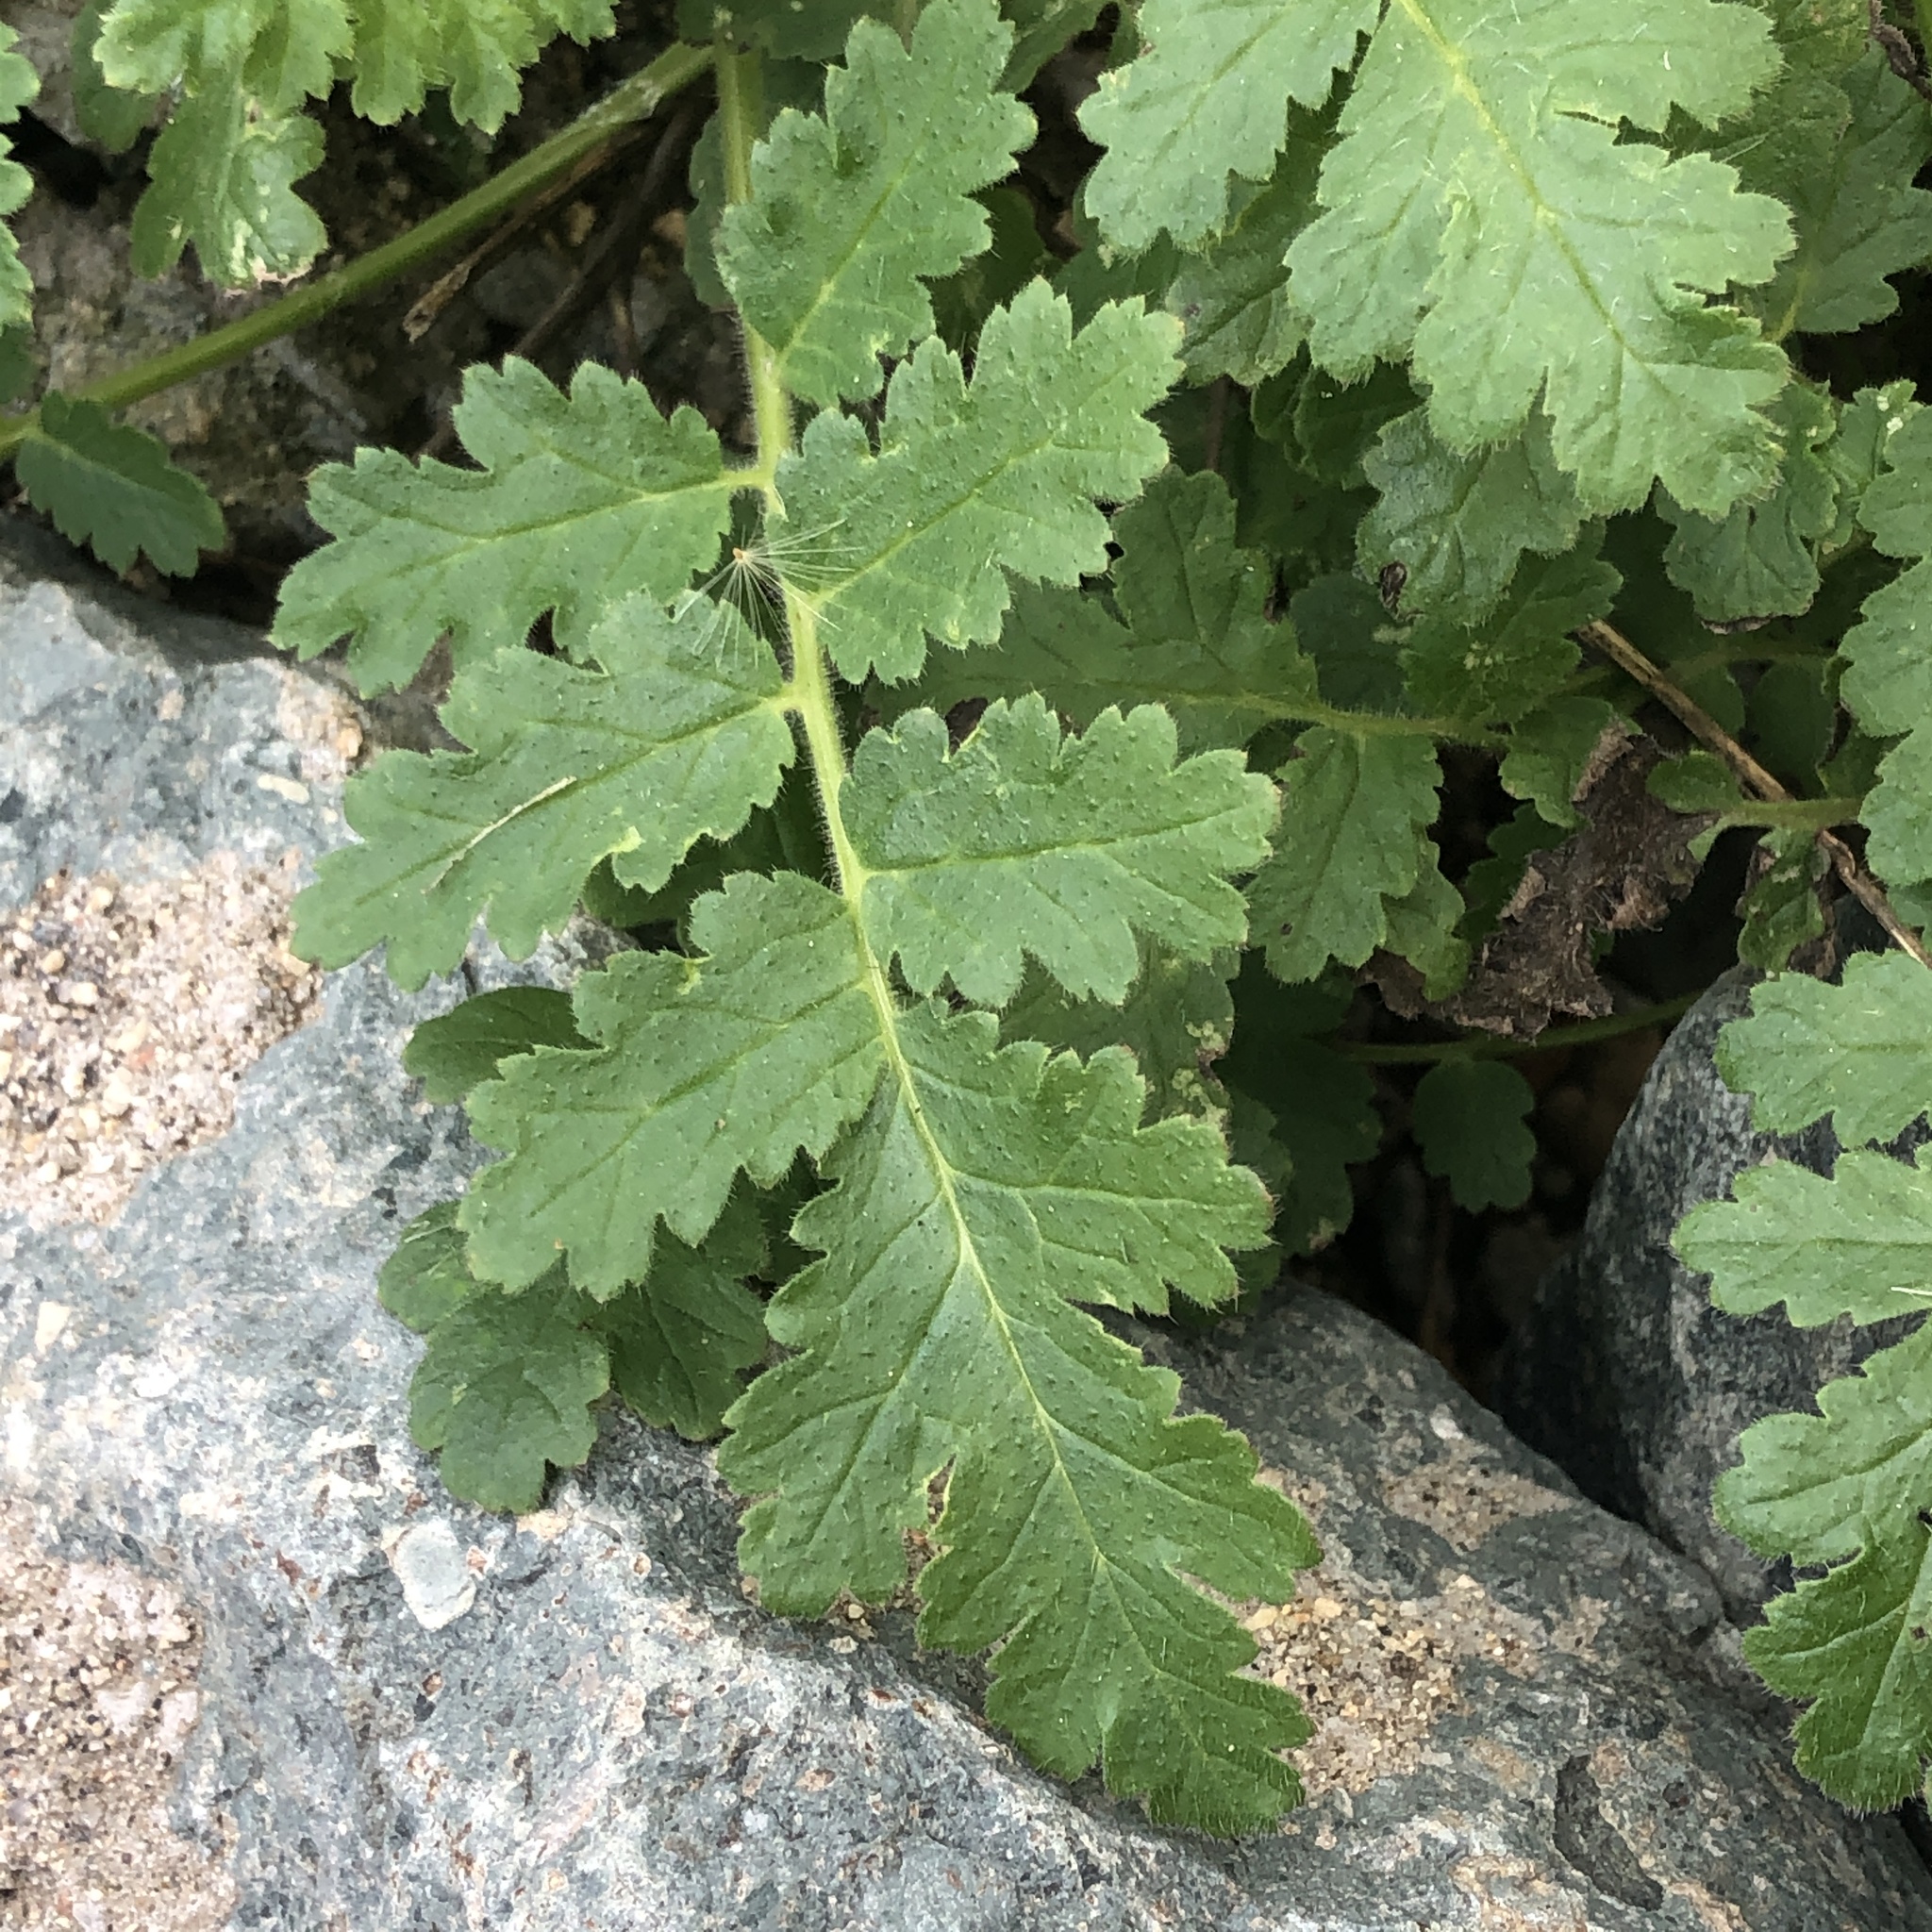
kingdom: Plantae
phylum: Tracheophyta
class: Magnoliopsida
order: Boraginales
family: Hydrophyllaceae
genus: Phacelia
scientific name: Phacelia ramosissima
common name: Branching phacelia
